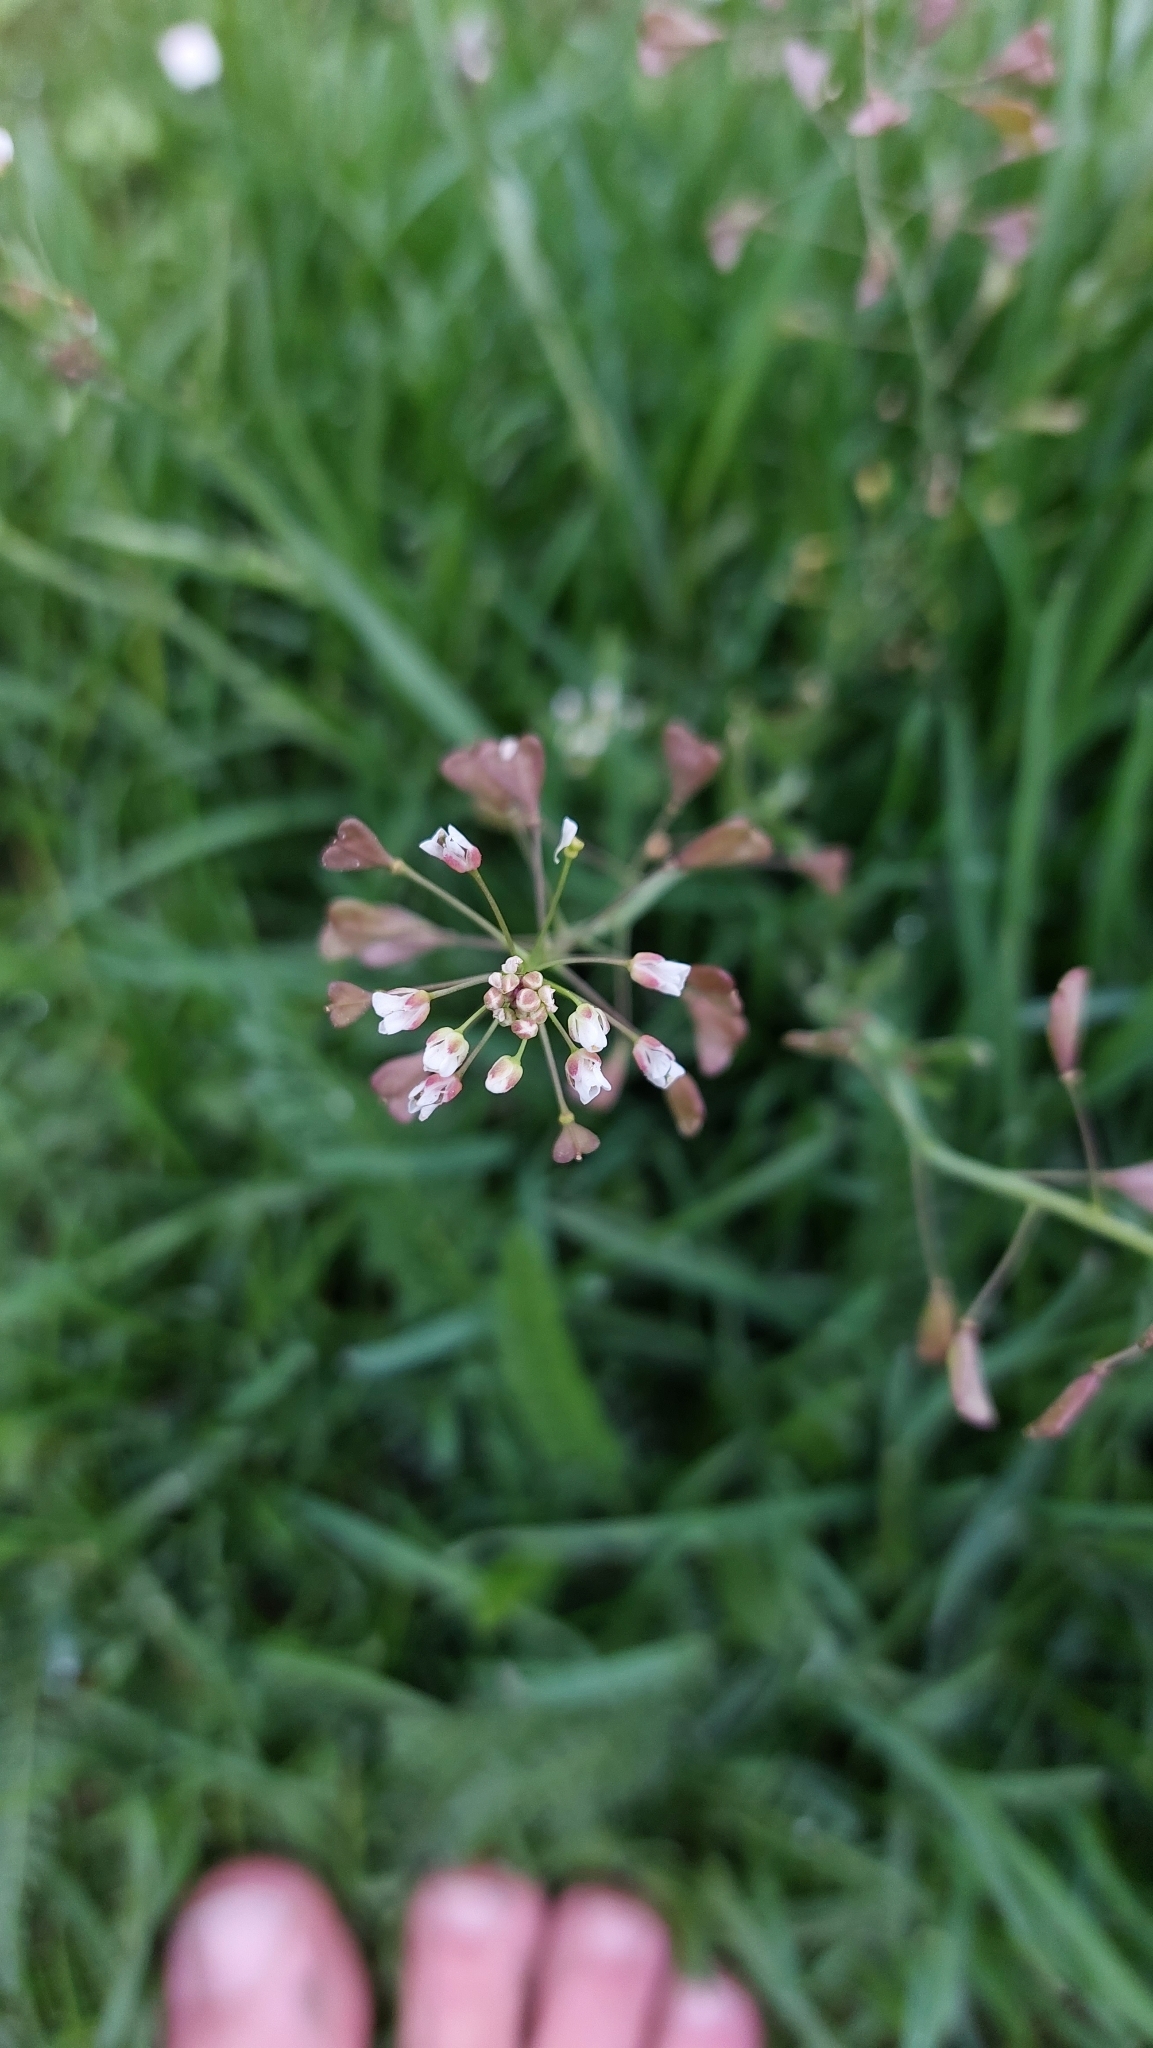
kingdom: Plantae
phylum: Tracheophyta
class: Magnoliopsida
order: Brassicales
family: Brassicaceae
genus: Capsella
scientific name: Capsella bursa-pastoris
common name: Shepherd's purse
